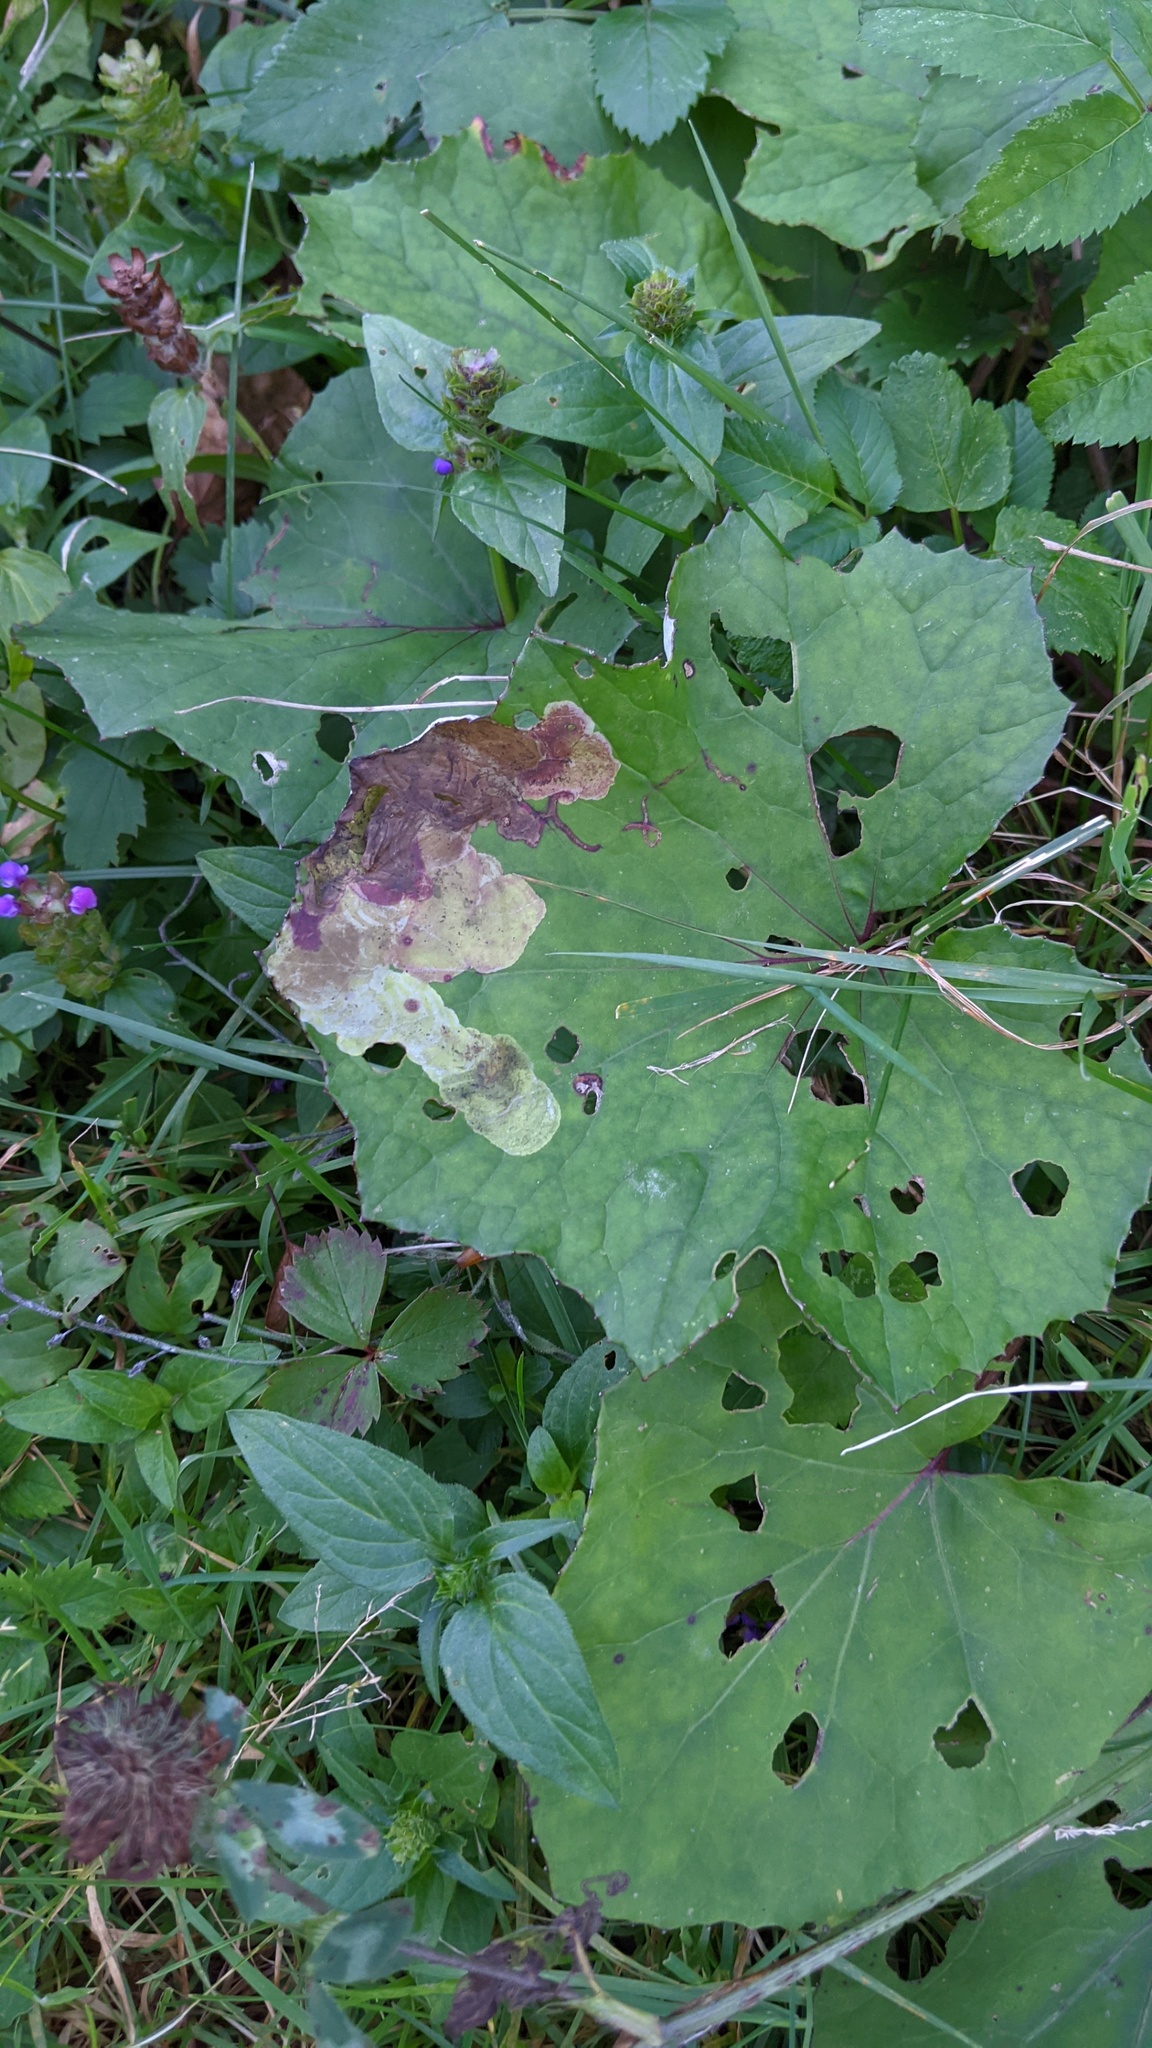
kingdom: Animalia
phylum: Arthropoda
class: Insecta
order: Diptera
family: Tephritidae
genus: Acidia
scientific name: Acidia cognata
